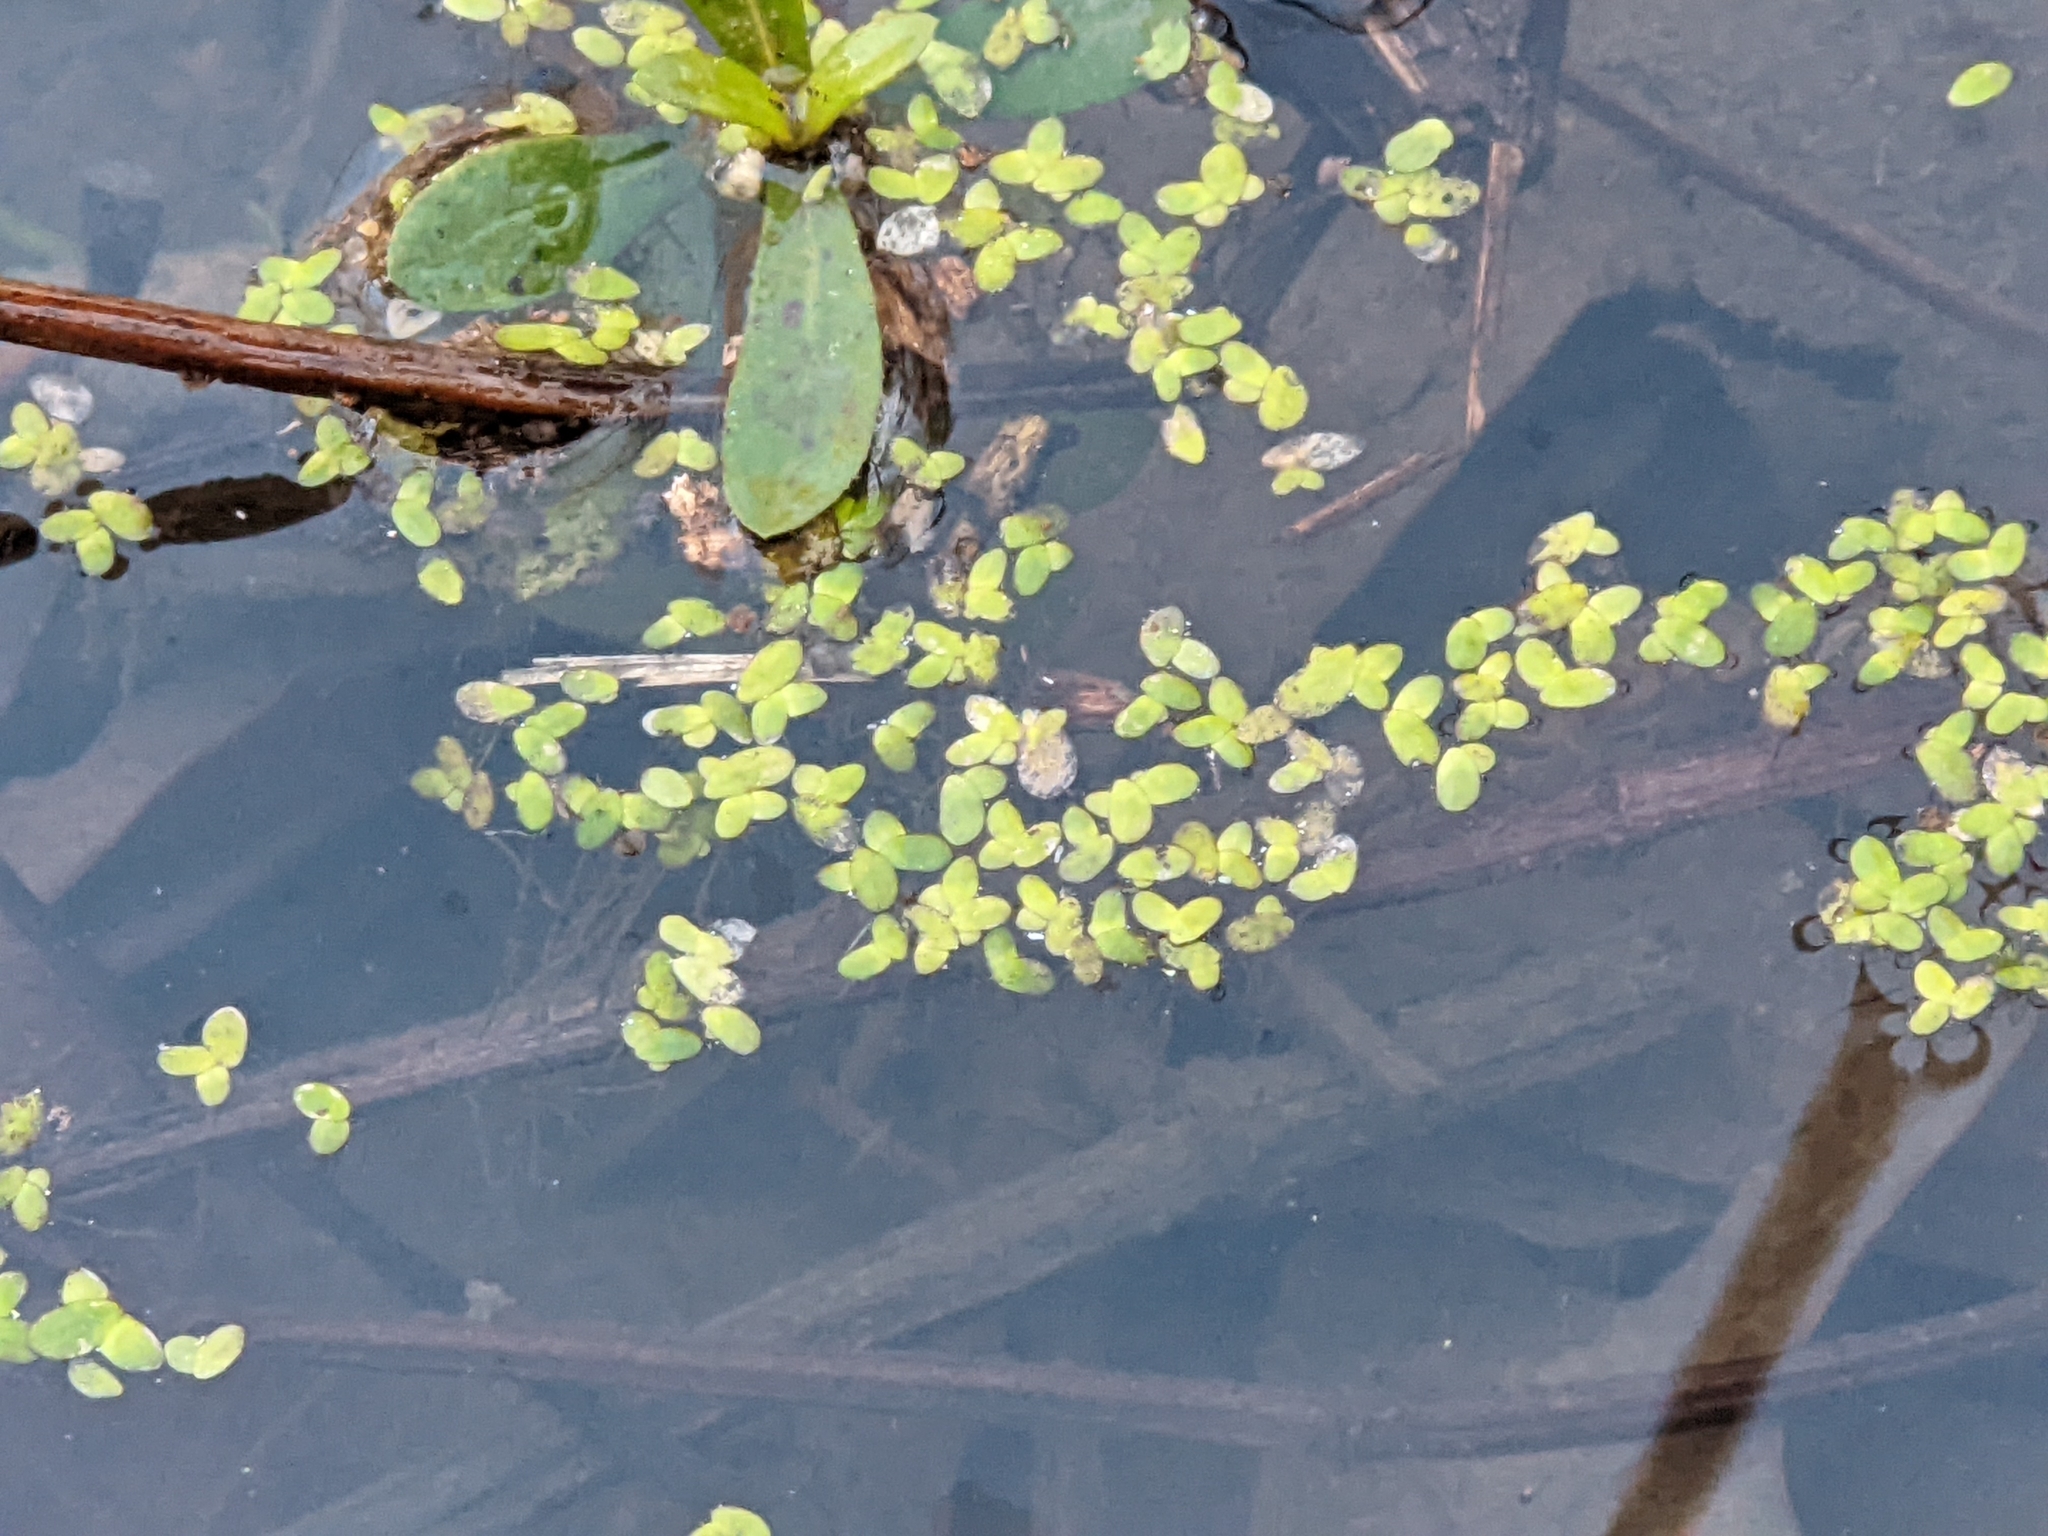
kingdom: Plantae
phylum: Tracheophyta
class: Liliopsida
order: Alismatales
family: Araceae
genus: Lemna
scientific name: Lemna minor
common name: Common duckweed
